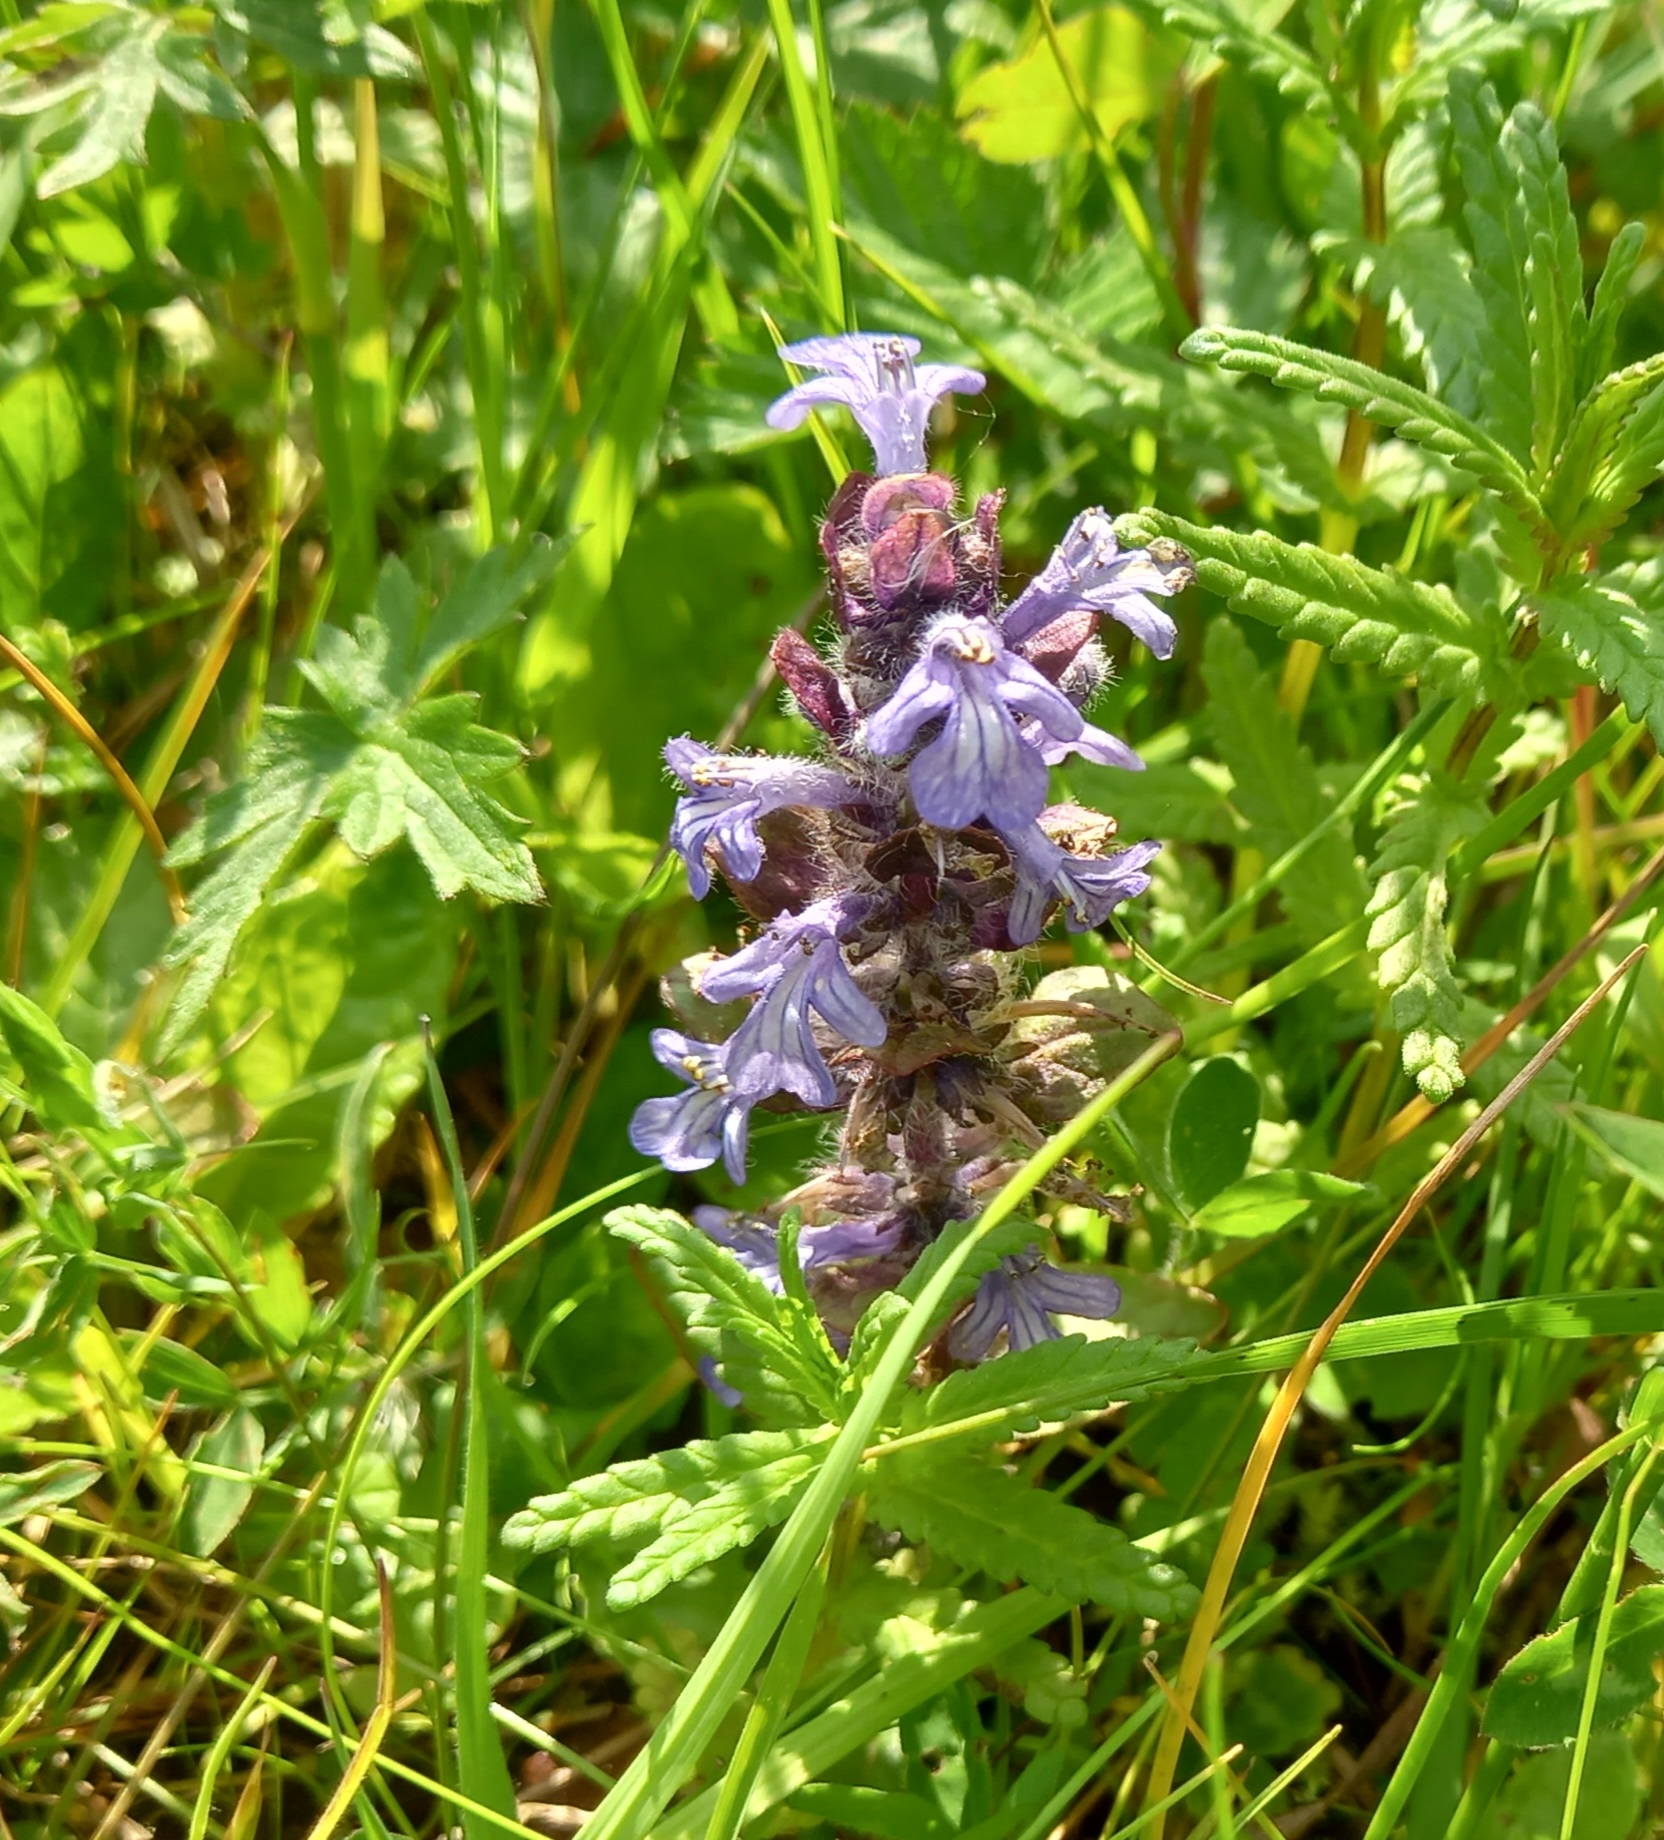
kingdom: Plantae
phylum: Tracheophyta
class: Magnoliopsida
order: Lamiales
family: Lamiaceae
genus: Ajuga
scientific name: Ajuga reptans
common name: Bugle
